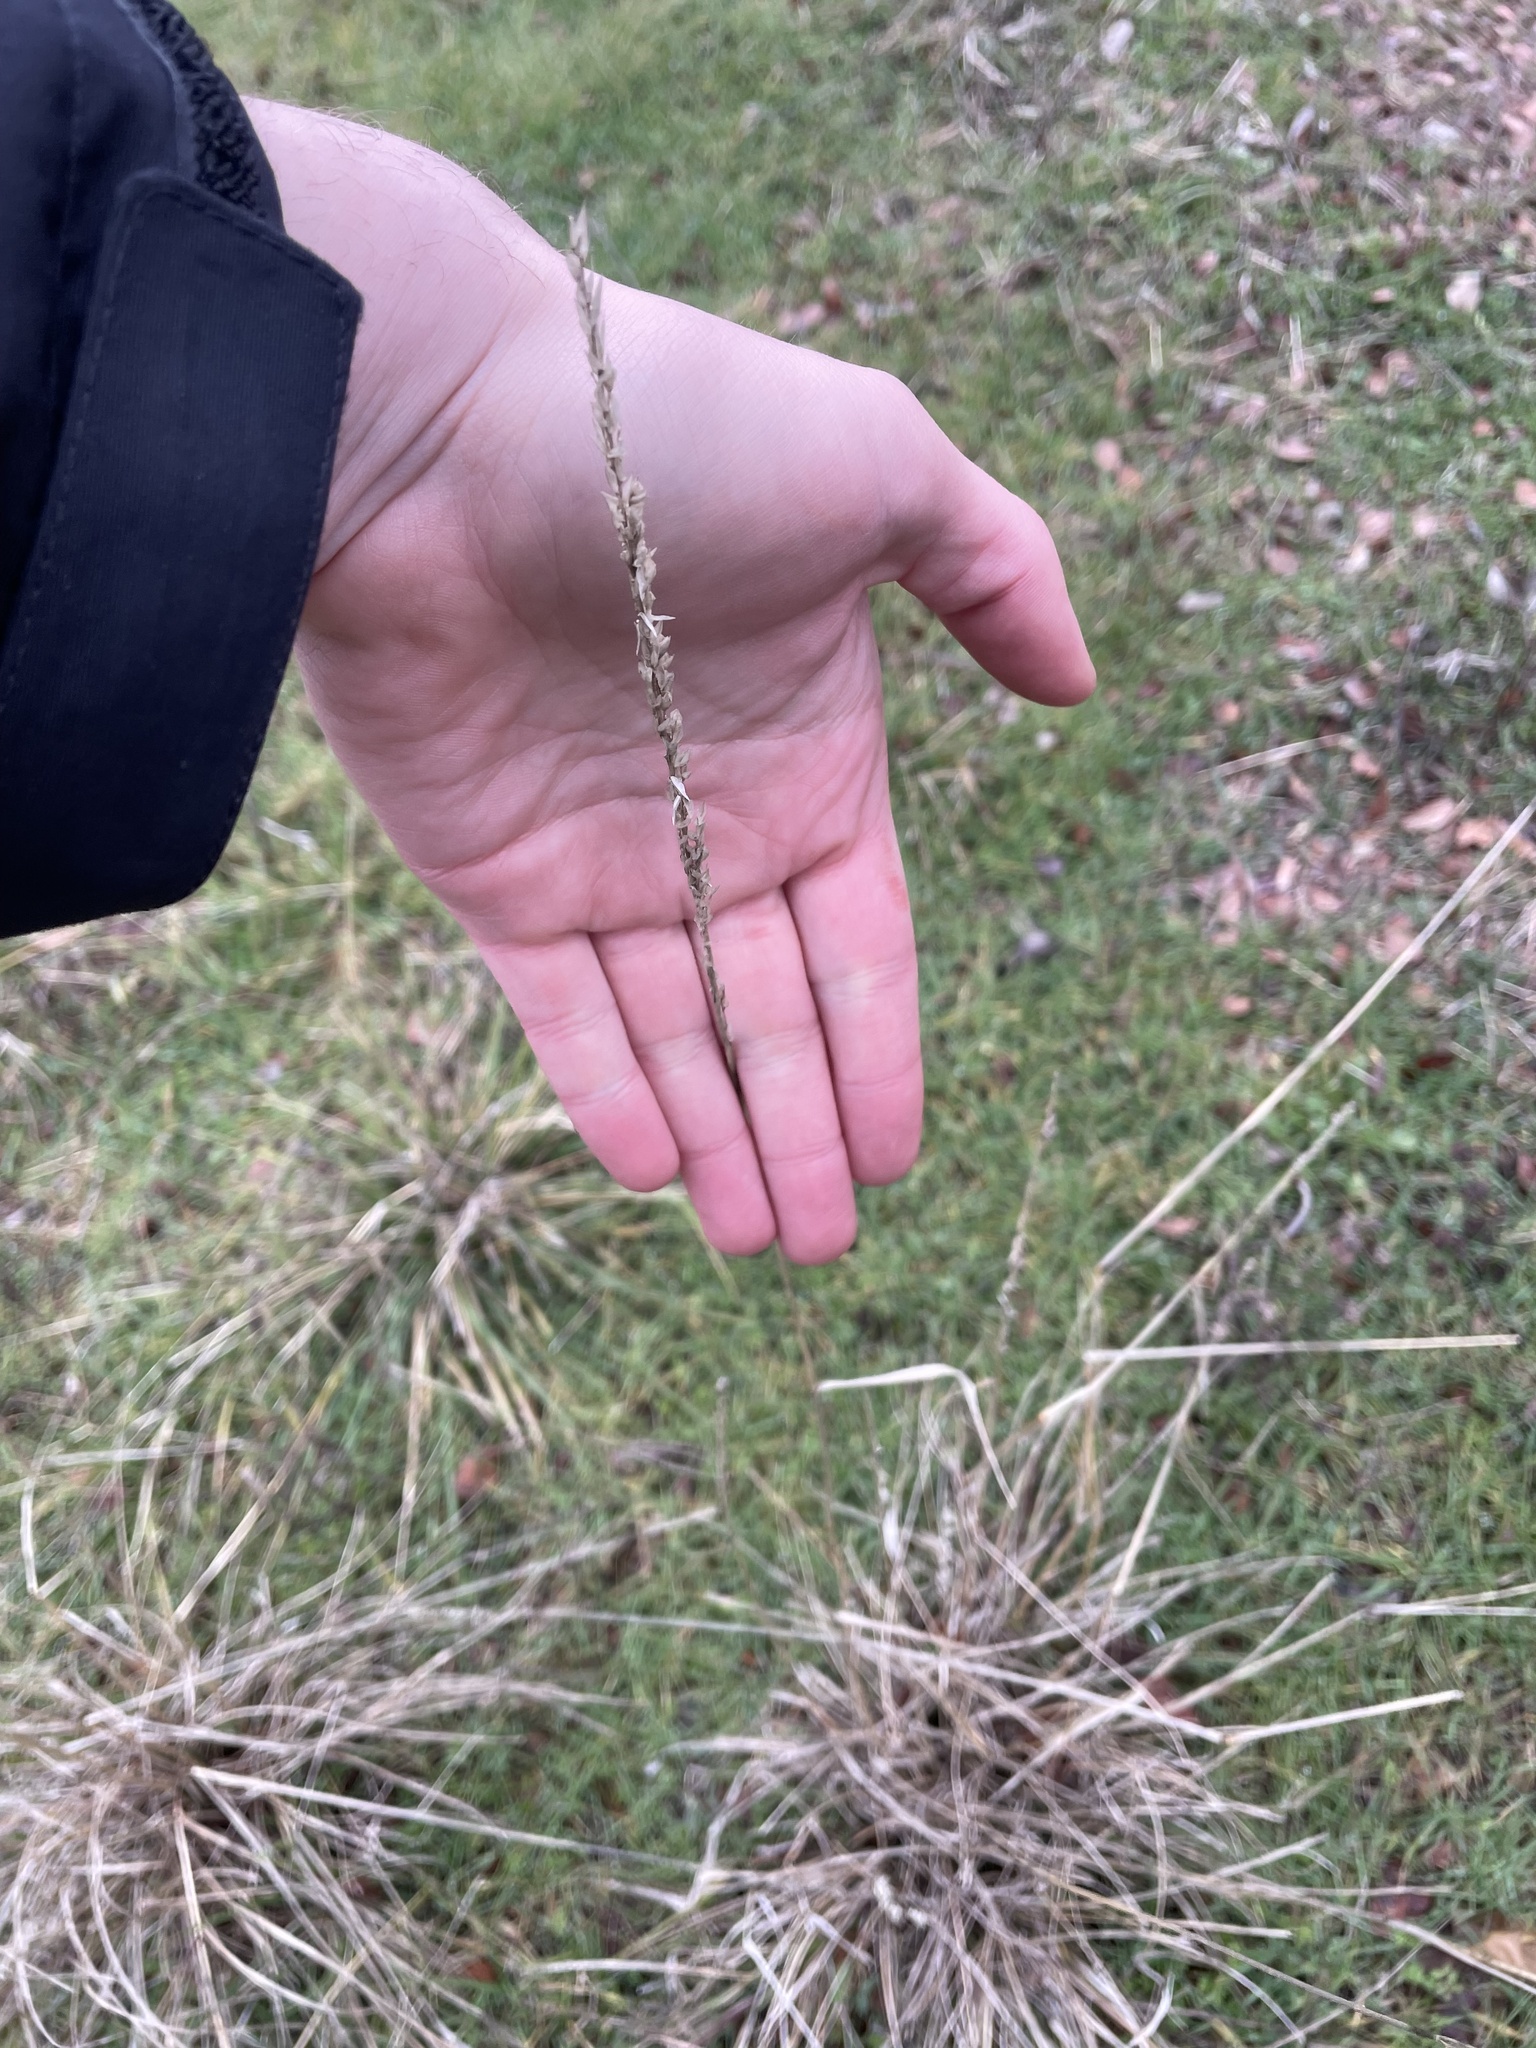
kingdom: Plantae
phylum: Tracheophyta
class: Liliopsida
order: Poales
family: Poaceae
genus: Tridens
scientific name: Tridens albescens
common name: White tridens
